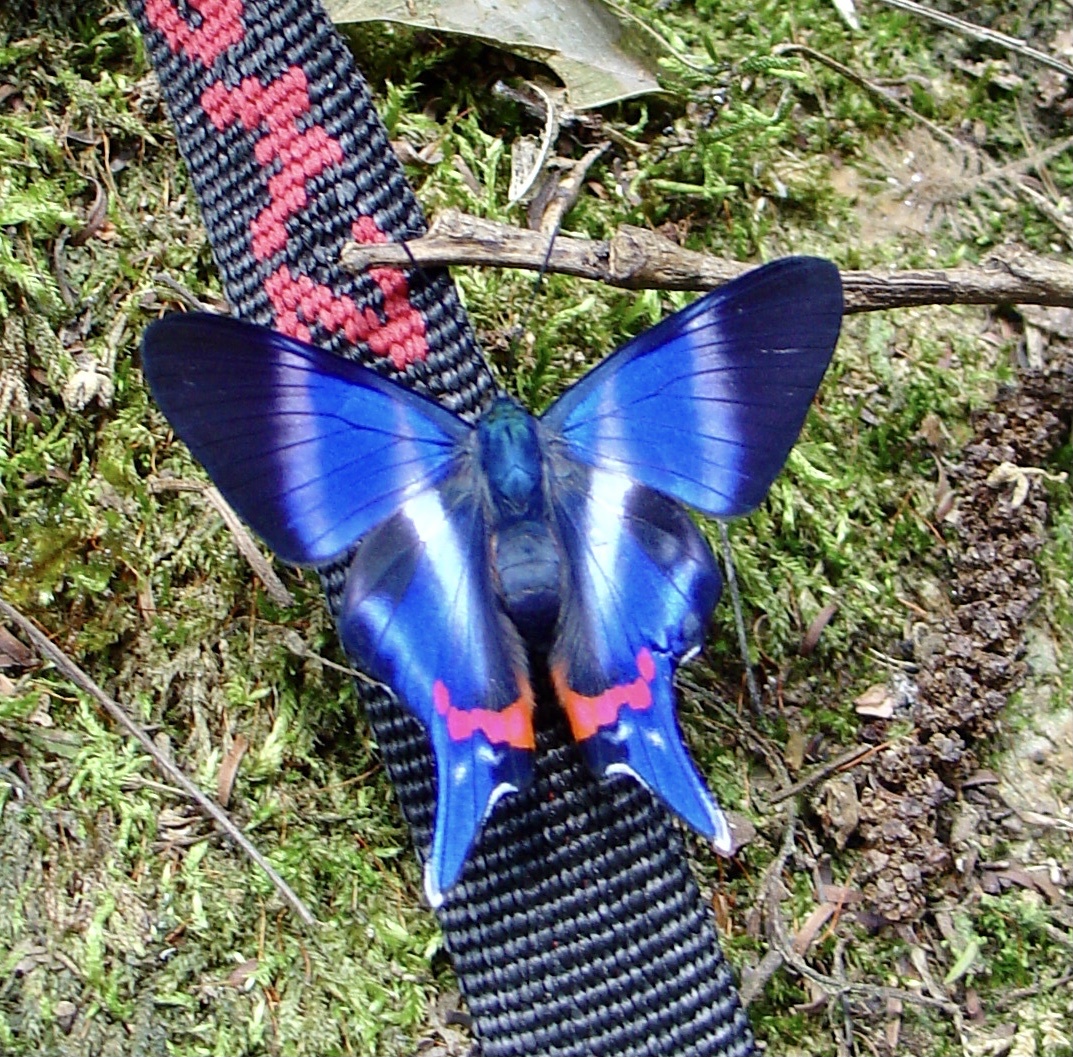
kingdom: Animalia
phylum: Arthropoda
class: Insecta
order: Lepidoptera
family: Riodinidae
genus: Rhetus
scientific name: Rhetus dysonii
